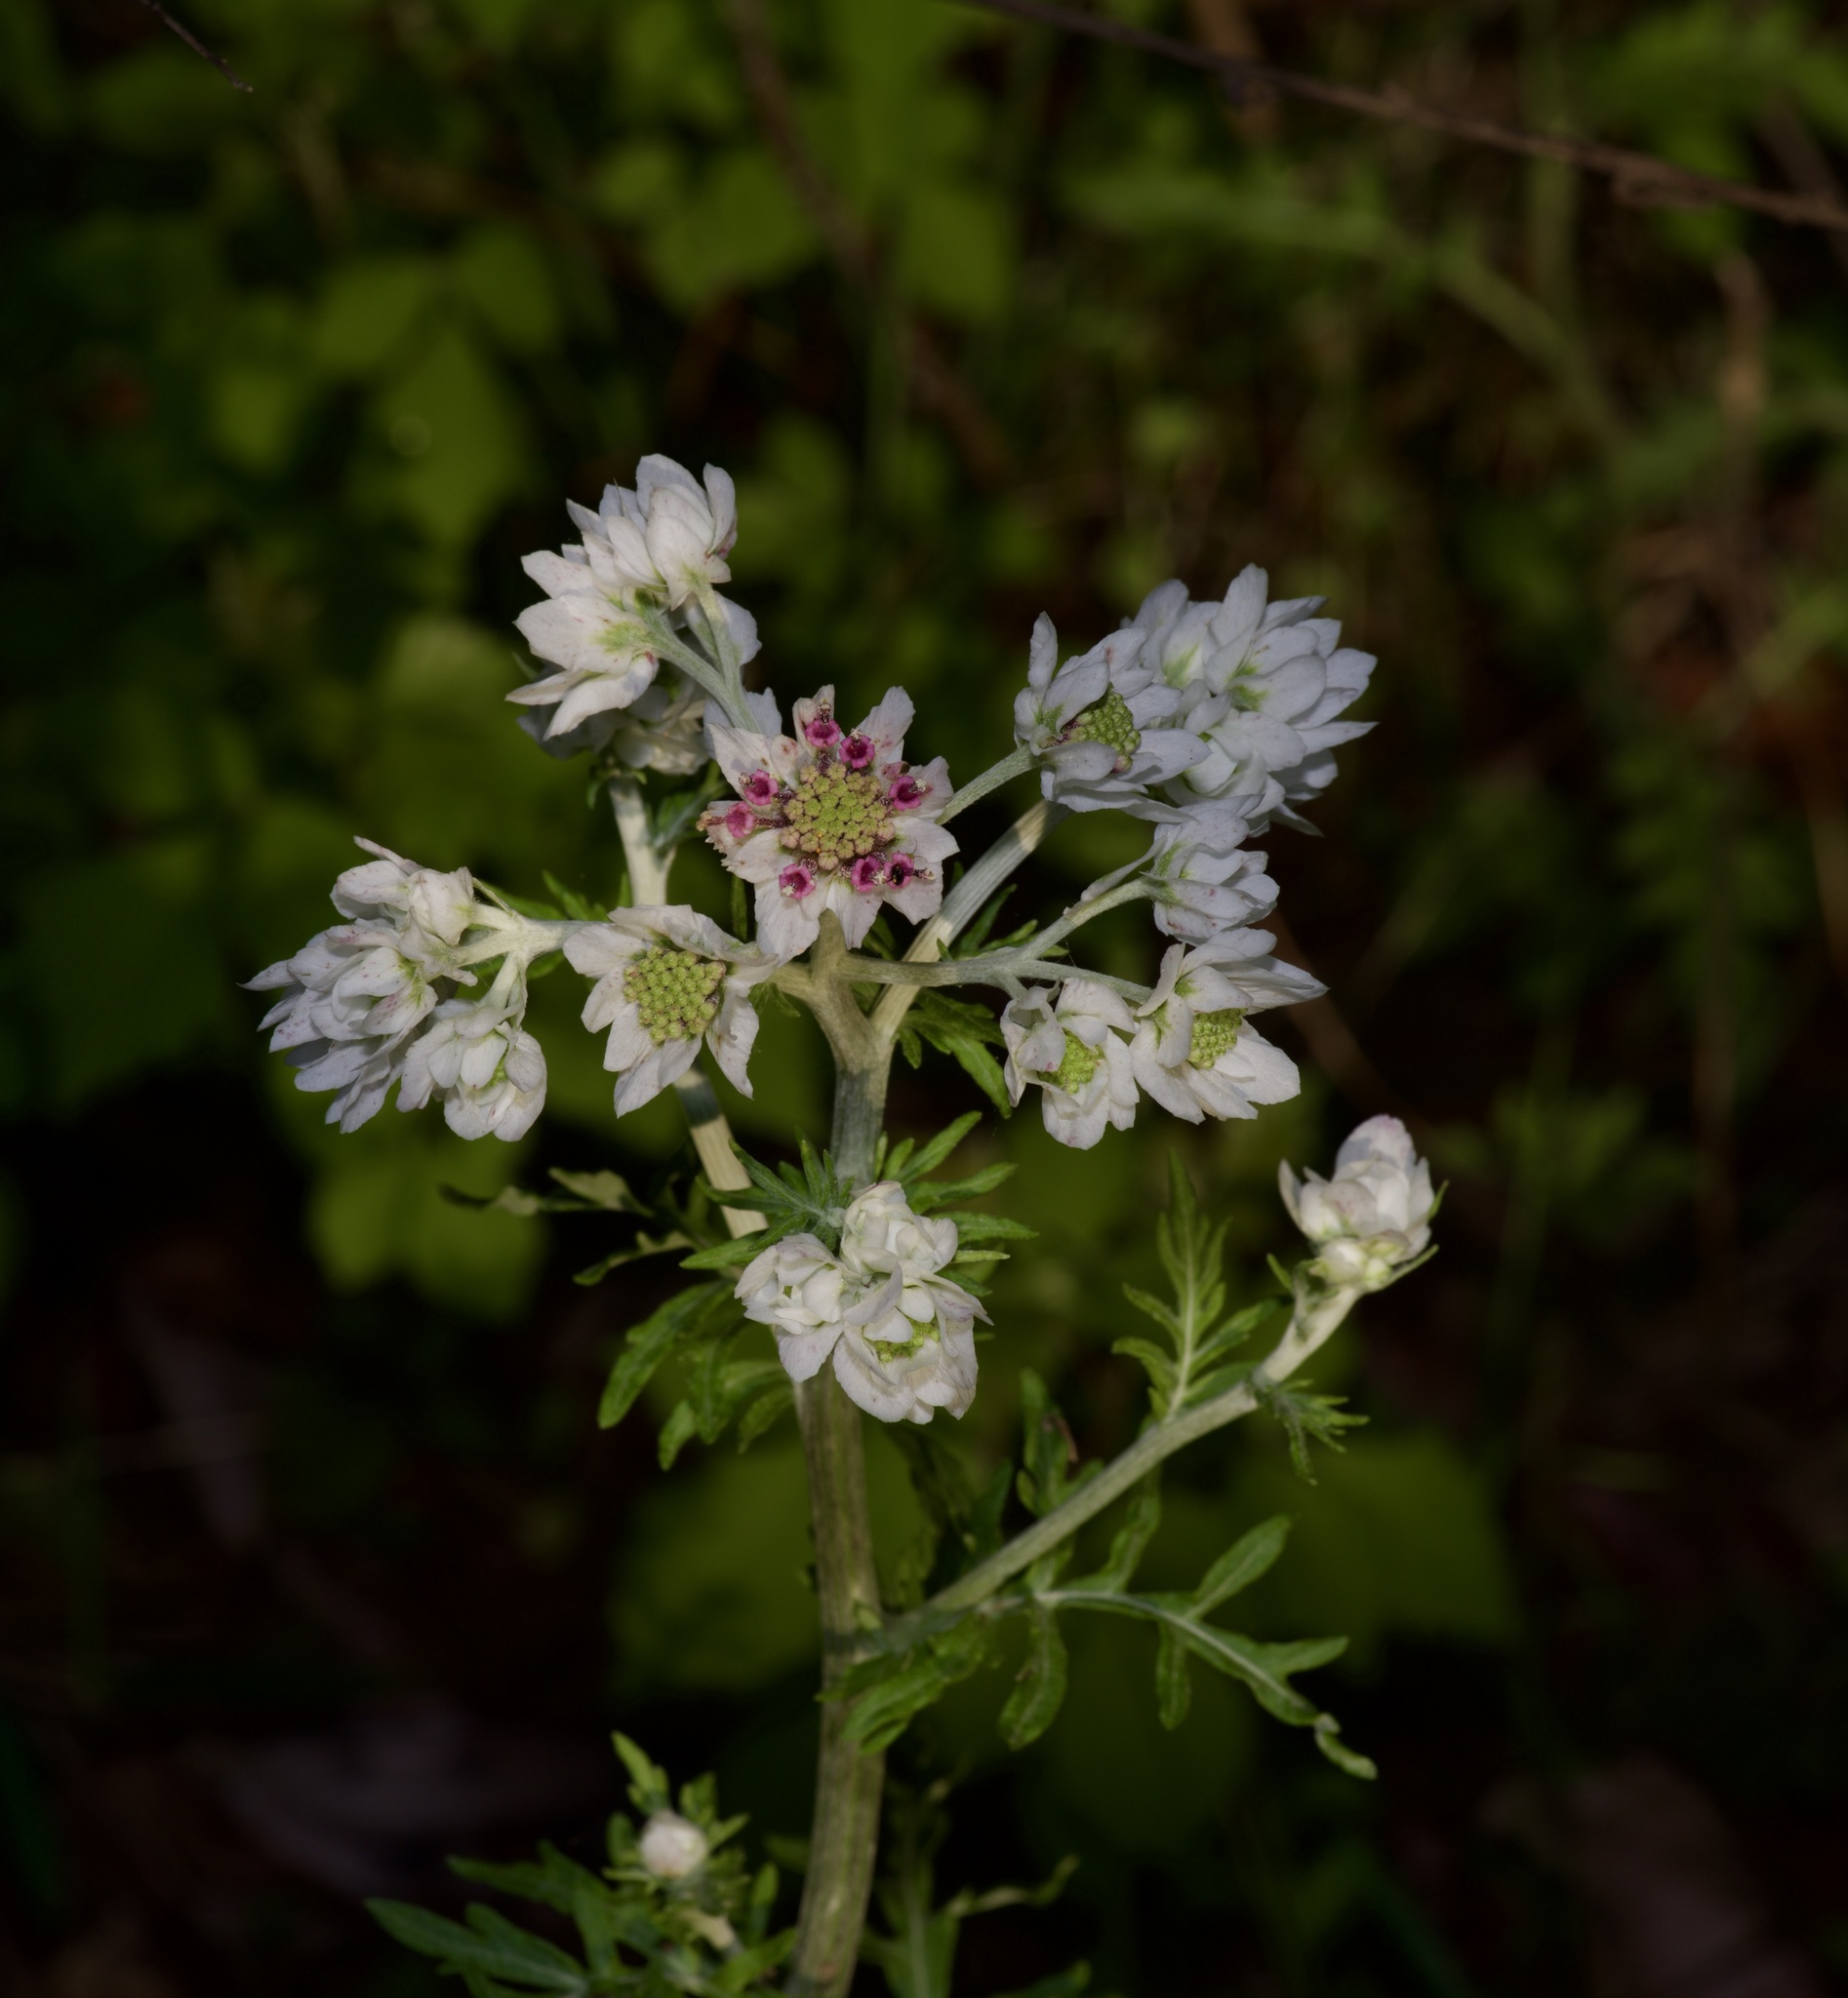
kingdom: Plantae
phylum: Tracheophyta
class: Magnoliopsida
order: Asterales
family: Asteraceae
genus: Hymenopappus
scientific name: Hymenopappus artemisiifolius
